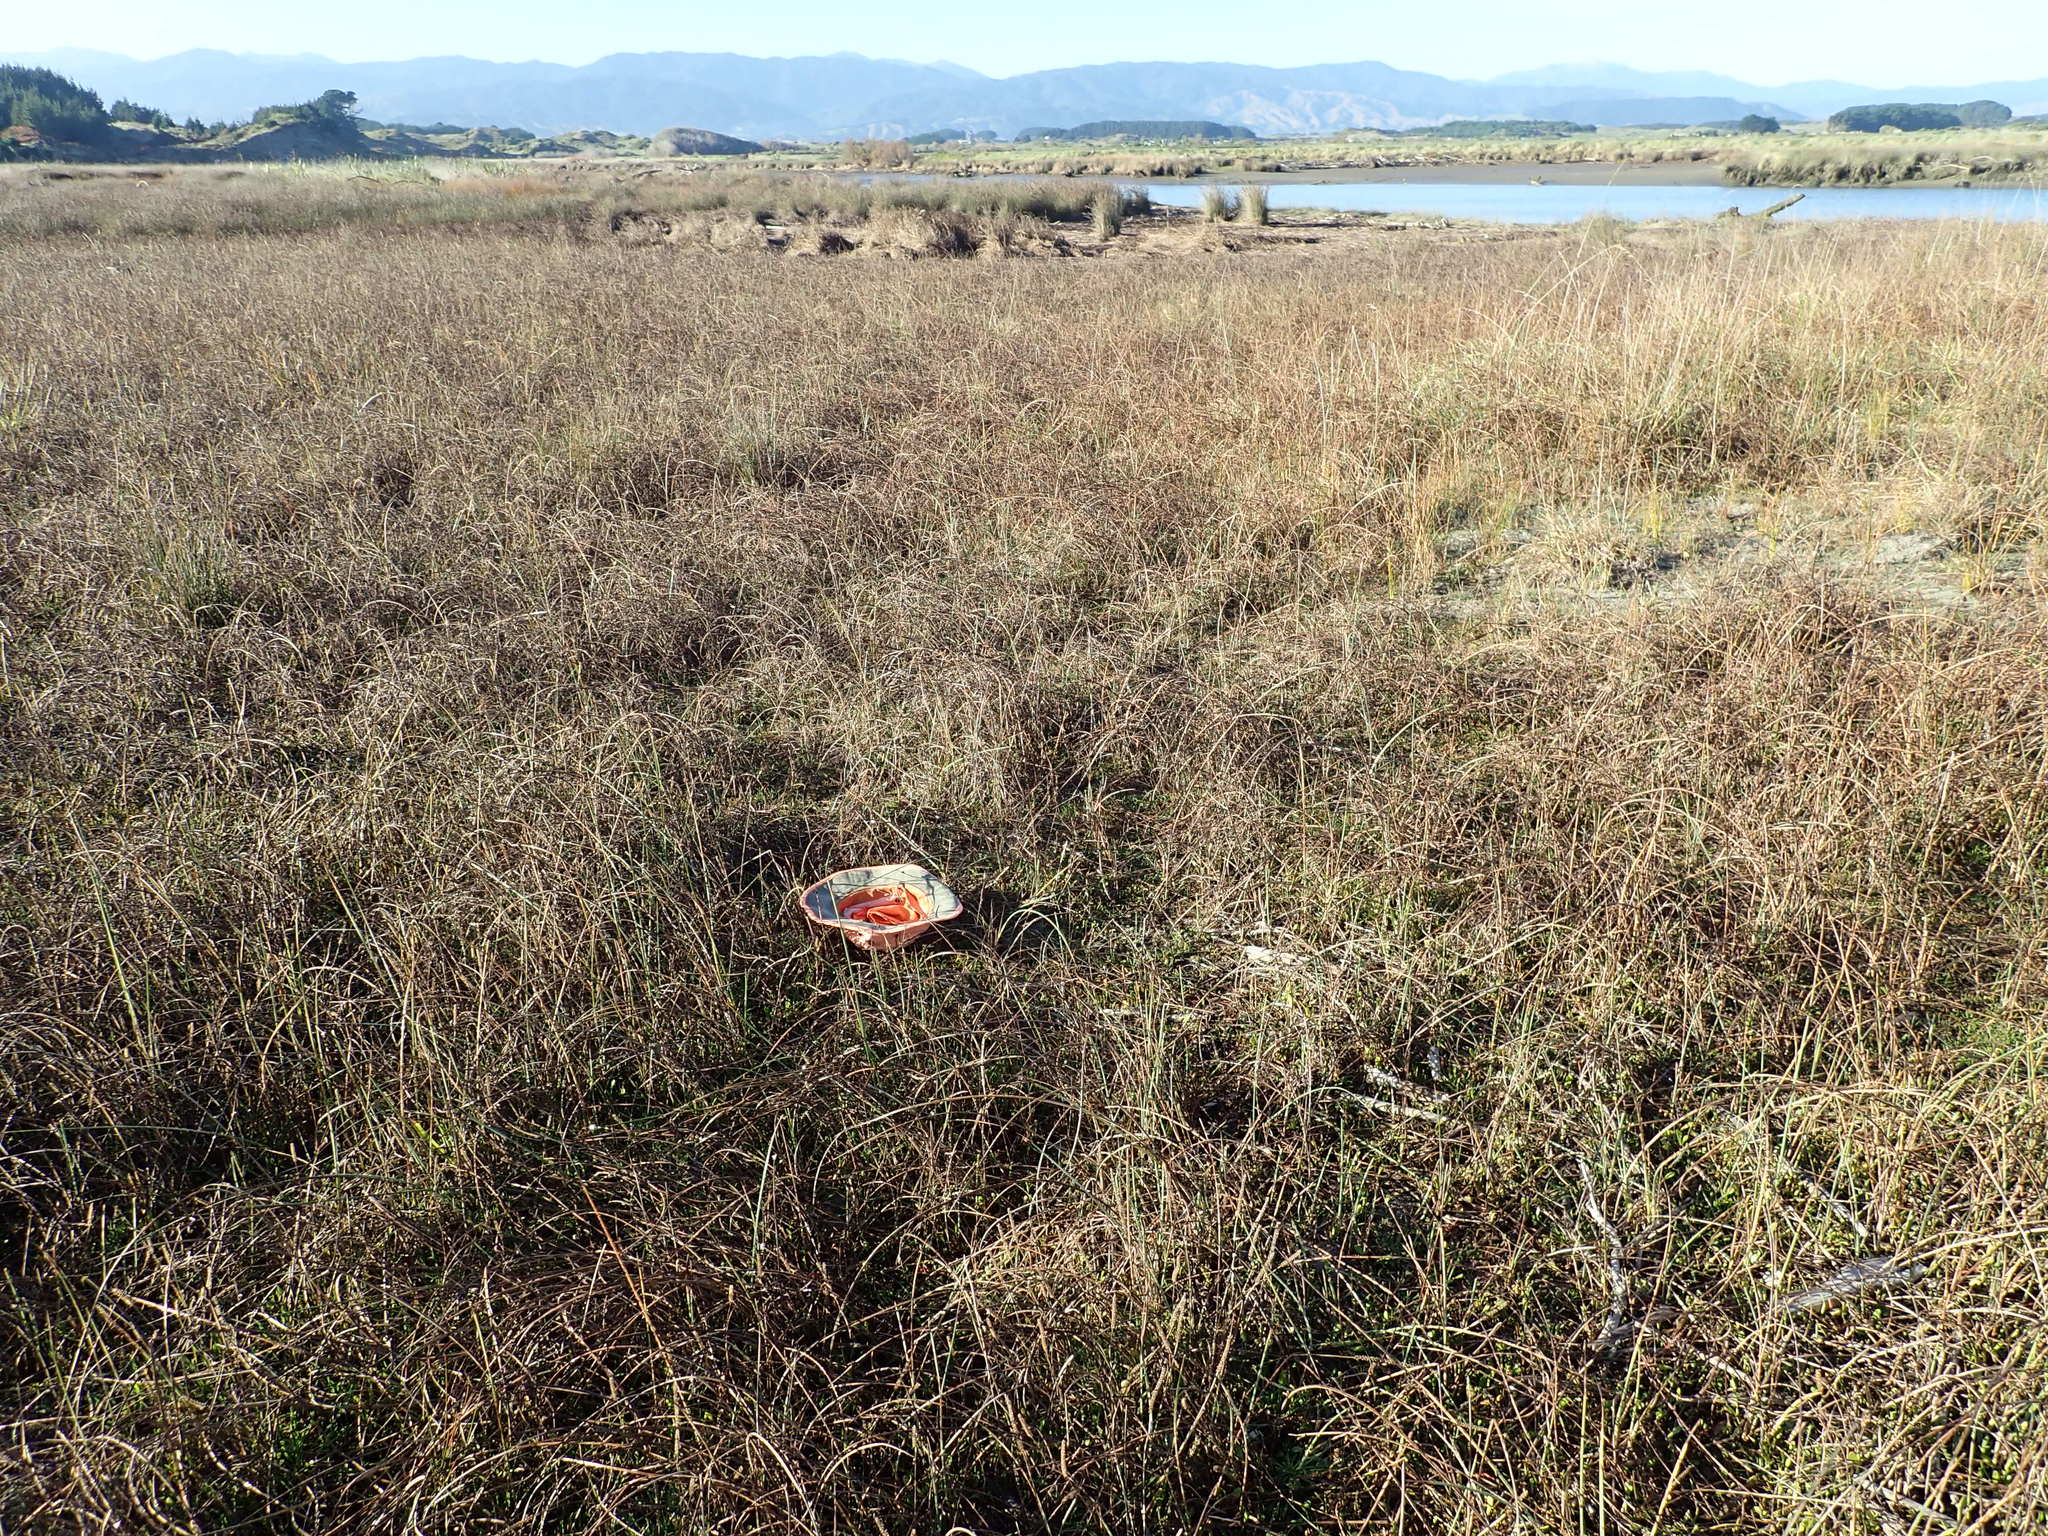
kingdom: Plantae
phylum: Tracheophyta
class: Magnoliopsida
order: Asterales
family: Goodeniaceae
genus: Goodenia
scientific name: Goodenia radicans
